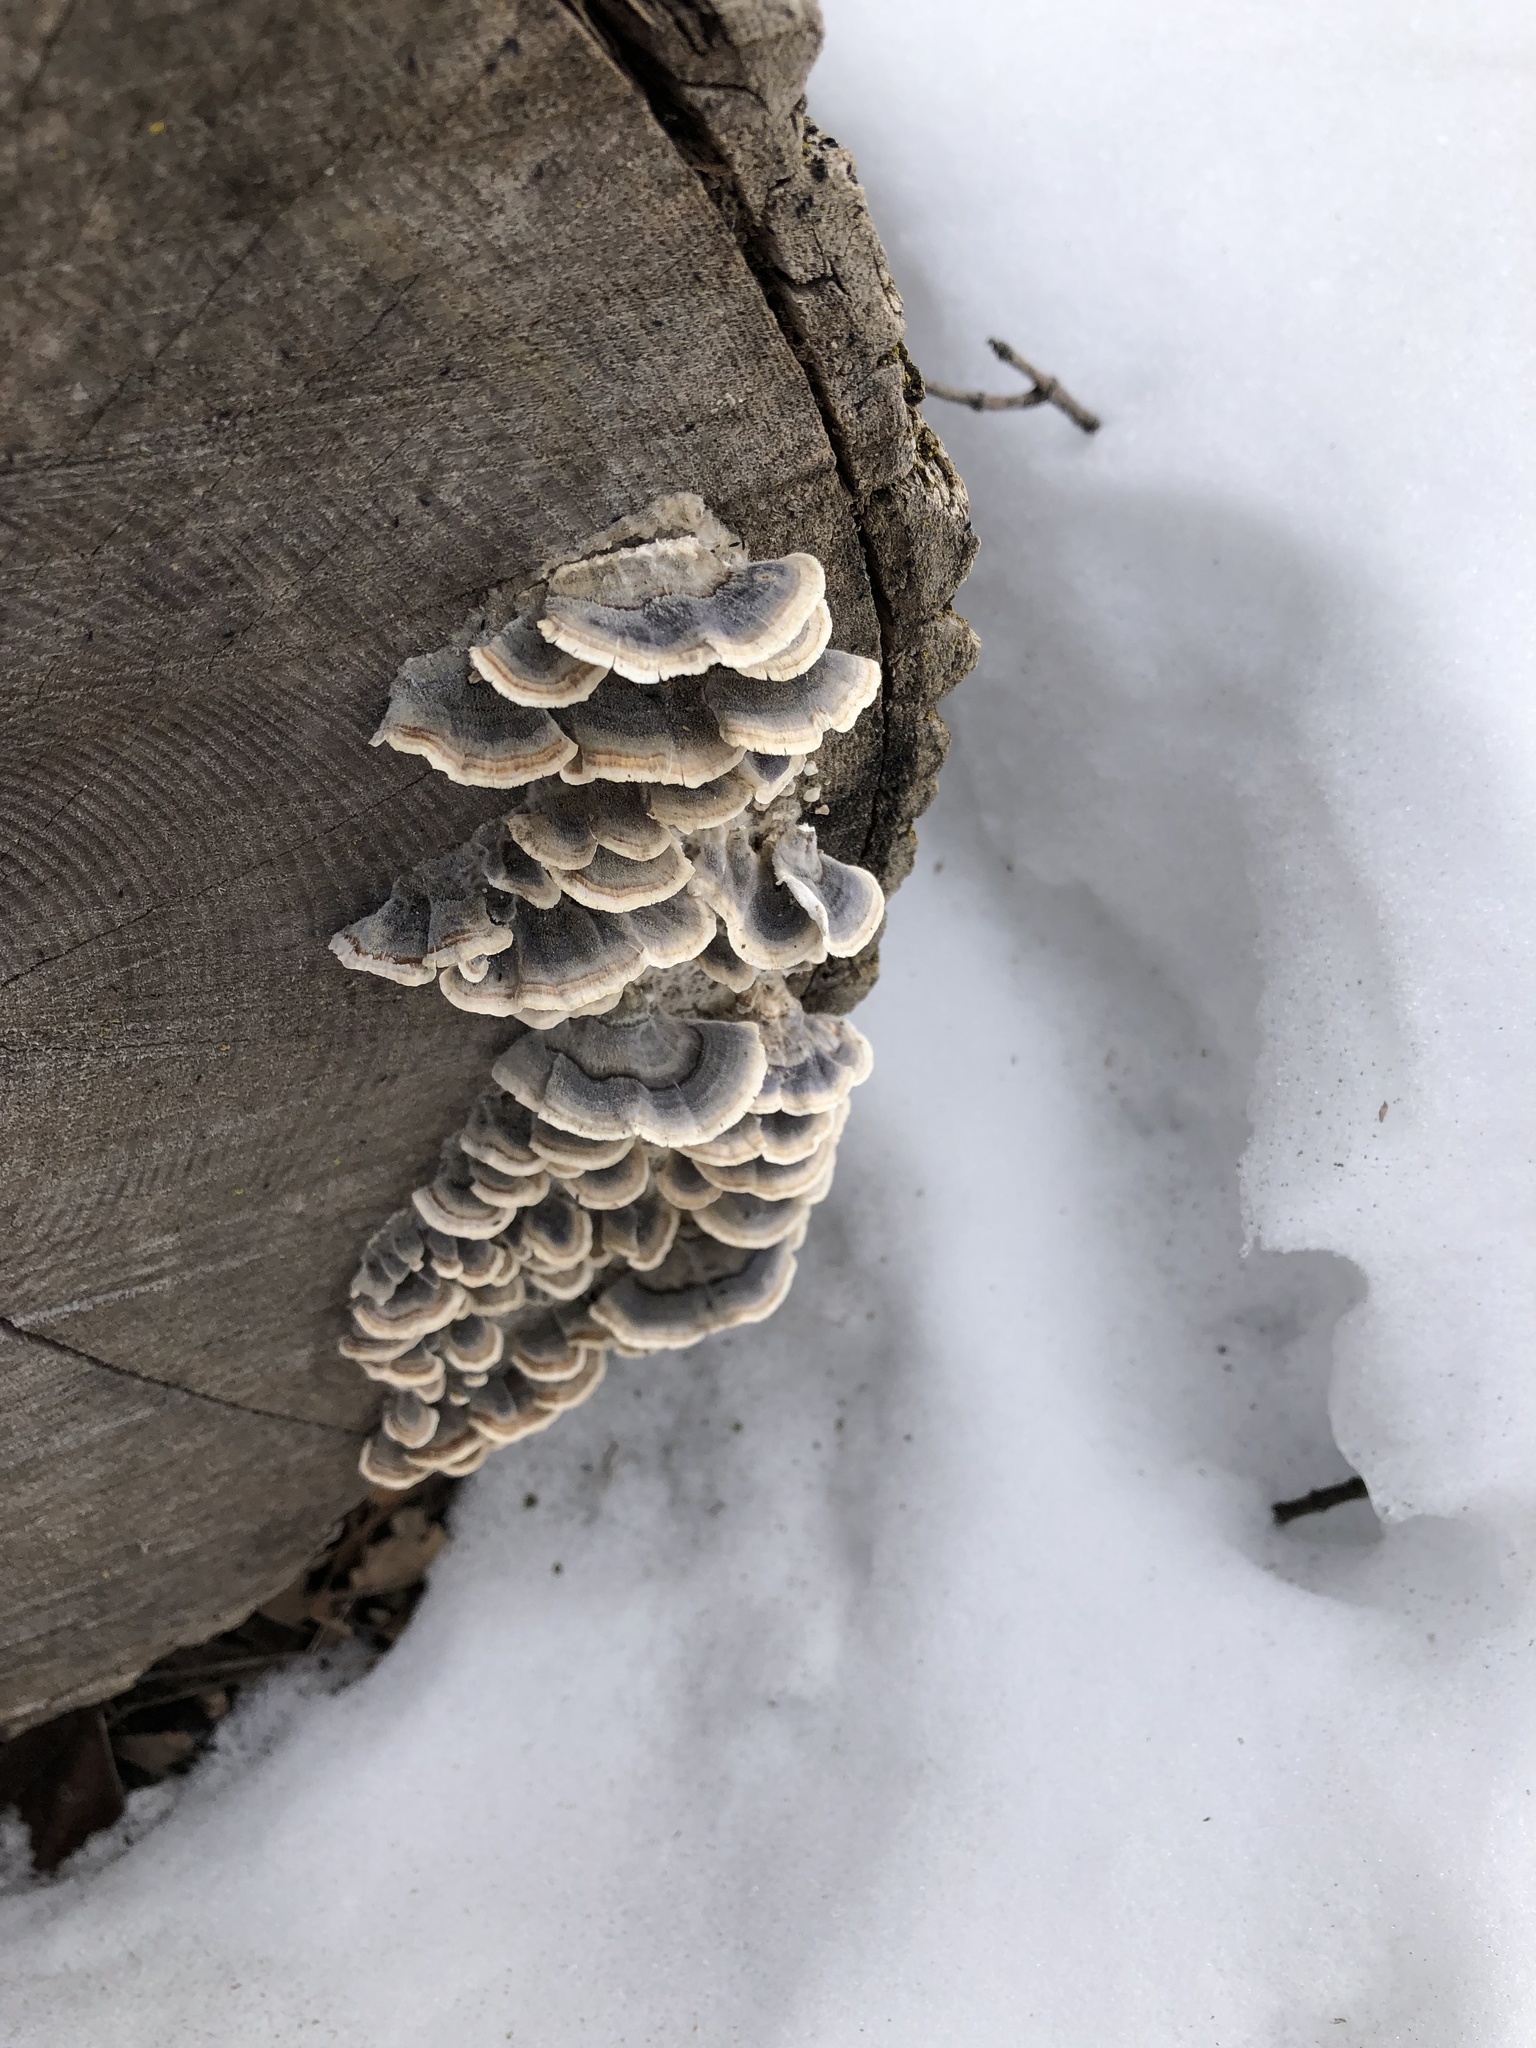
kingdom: Fungi
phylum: Basidiomycota
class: Agaricomycetes
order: Polyporales
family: Polyporaceae
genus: Trametes
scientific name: Trametes versicolor
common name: Turkeytail
